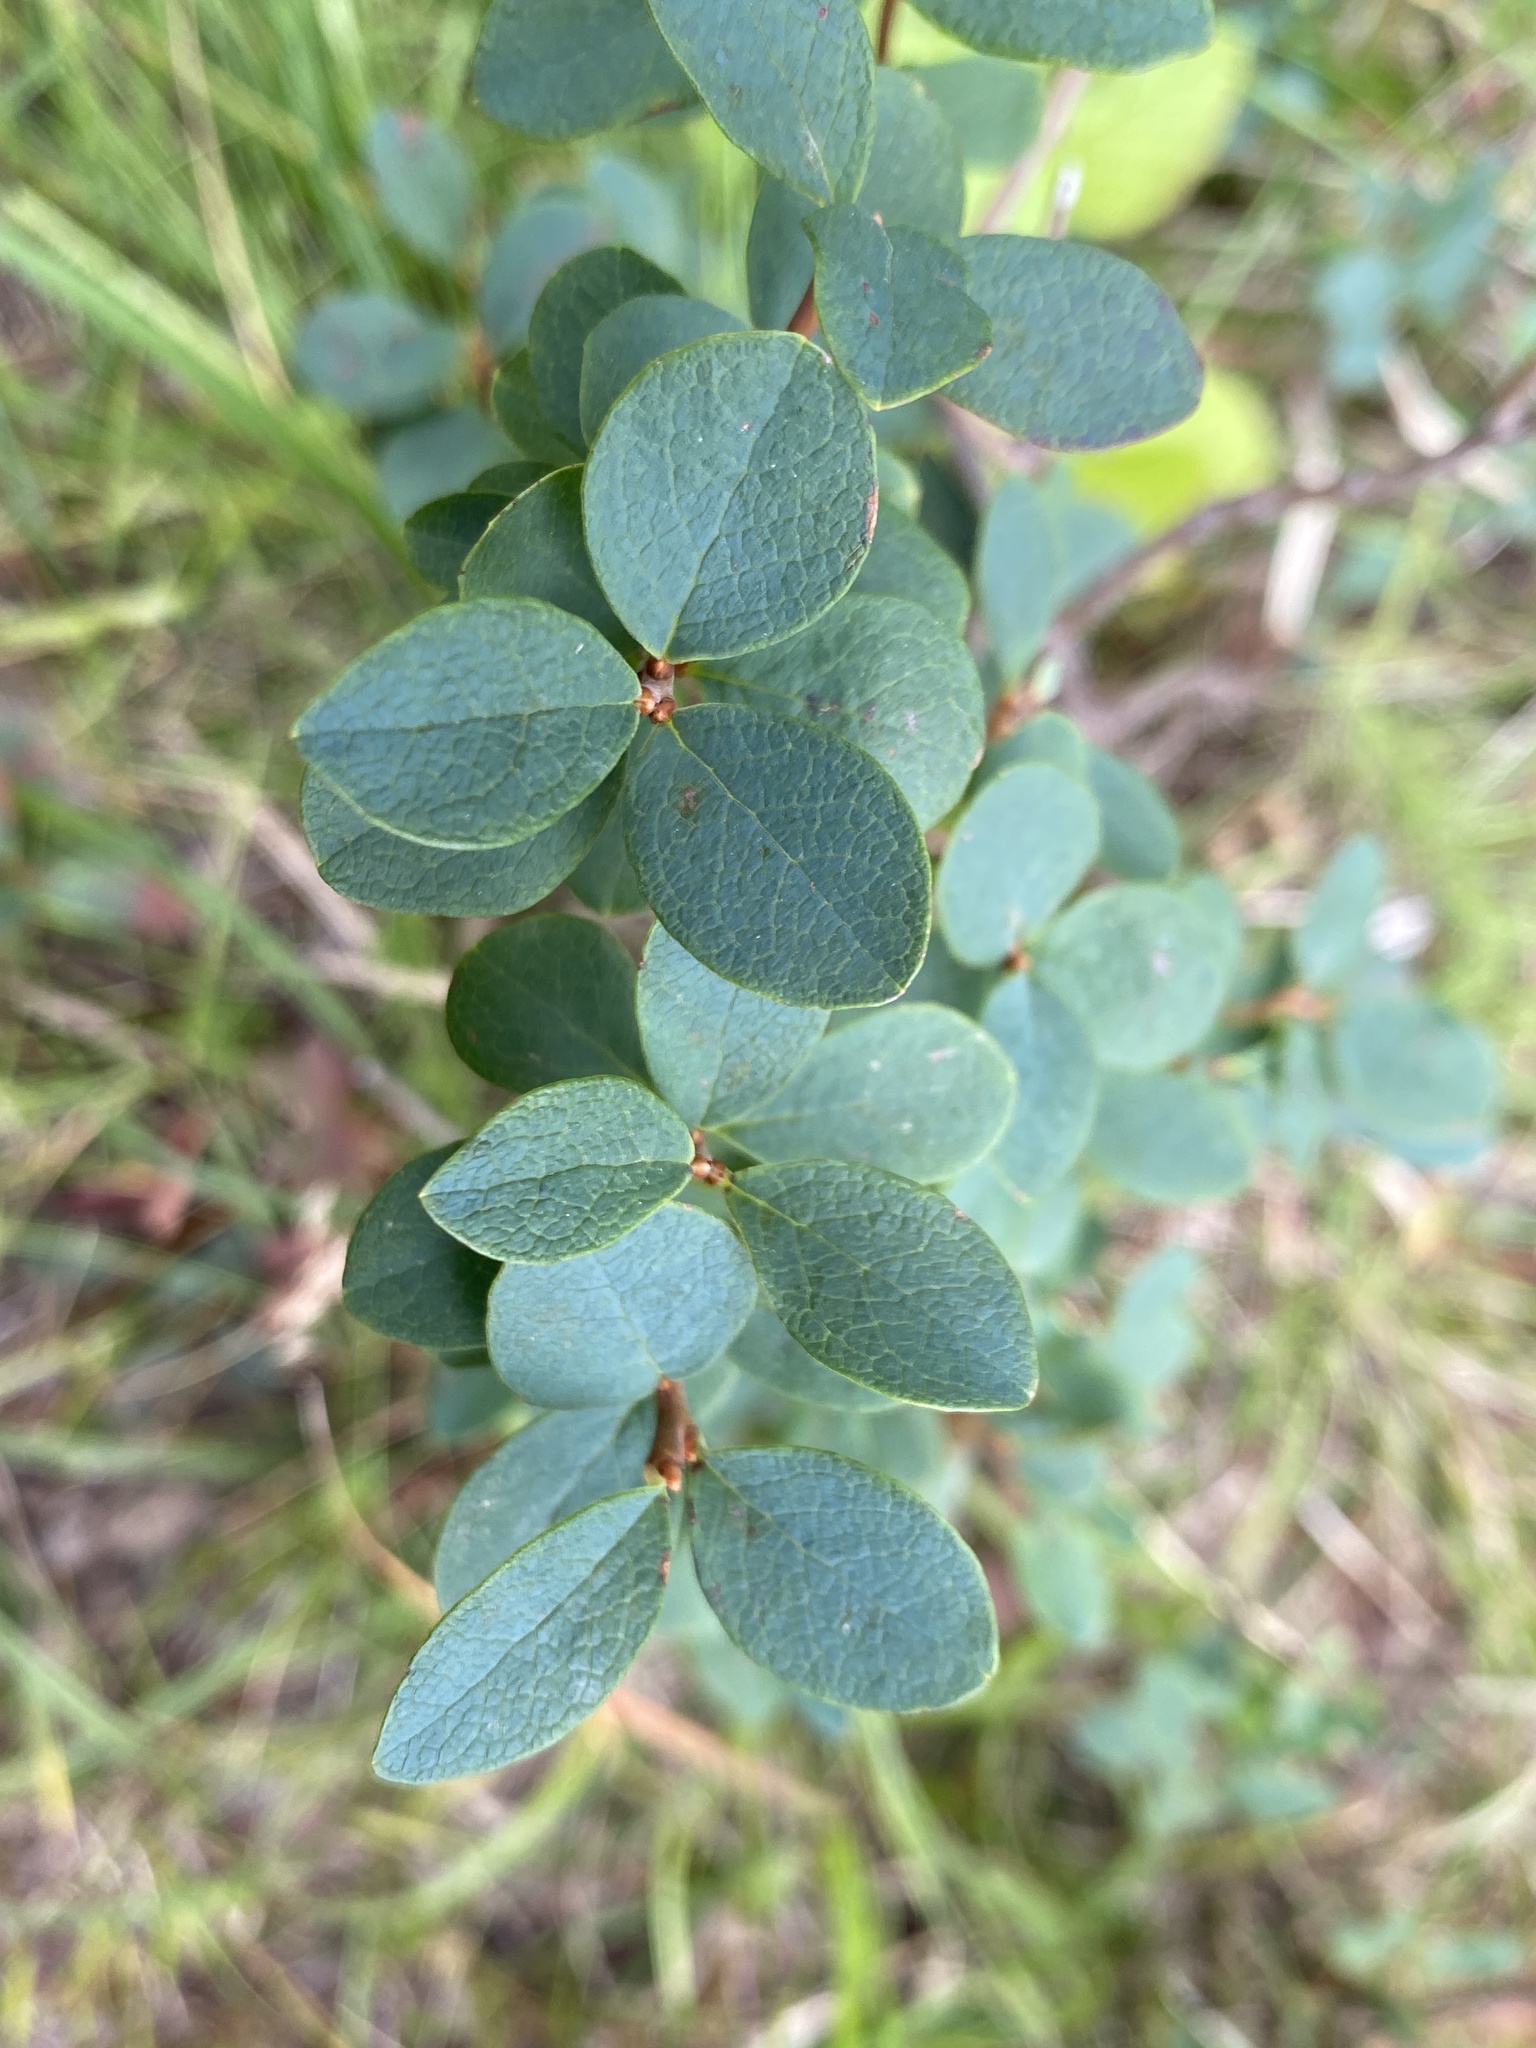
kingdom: Plantae
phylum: Tracheophyta
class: Magnoliopsida
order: Ericales
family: Ericaceae
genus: Vaccinium
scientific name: Vaccinium uliginosum
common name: Bog bilberry
